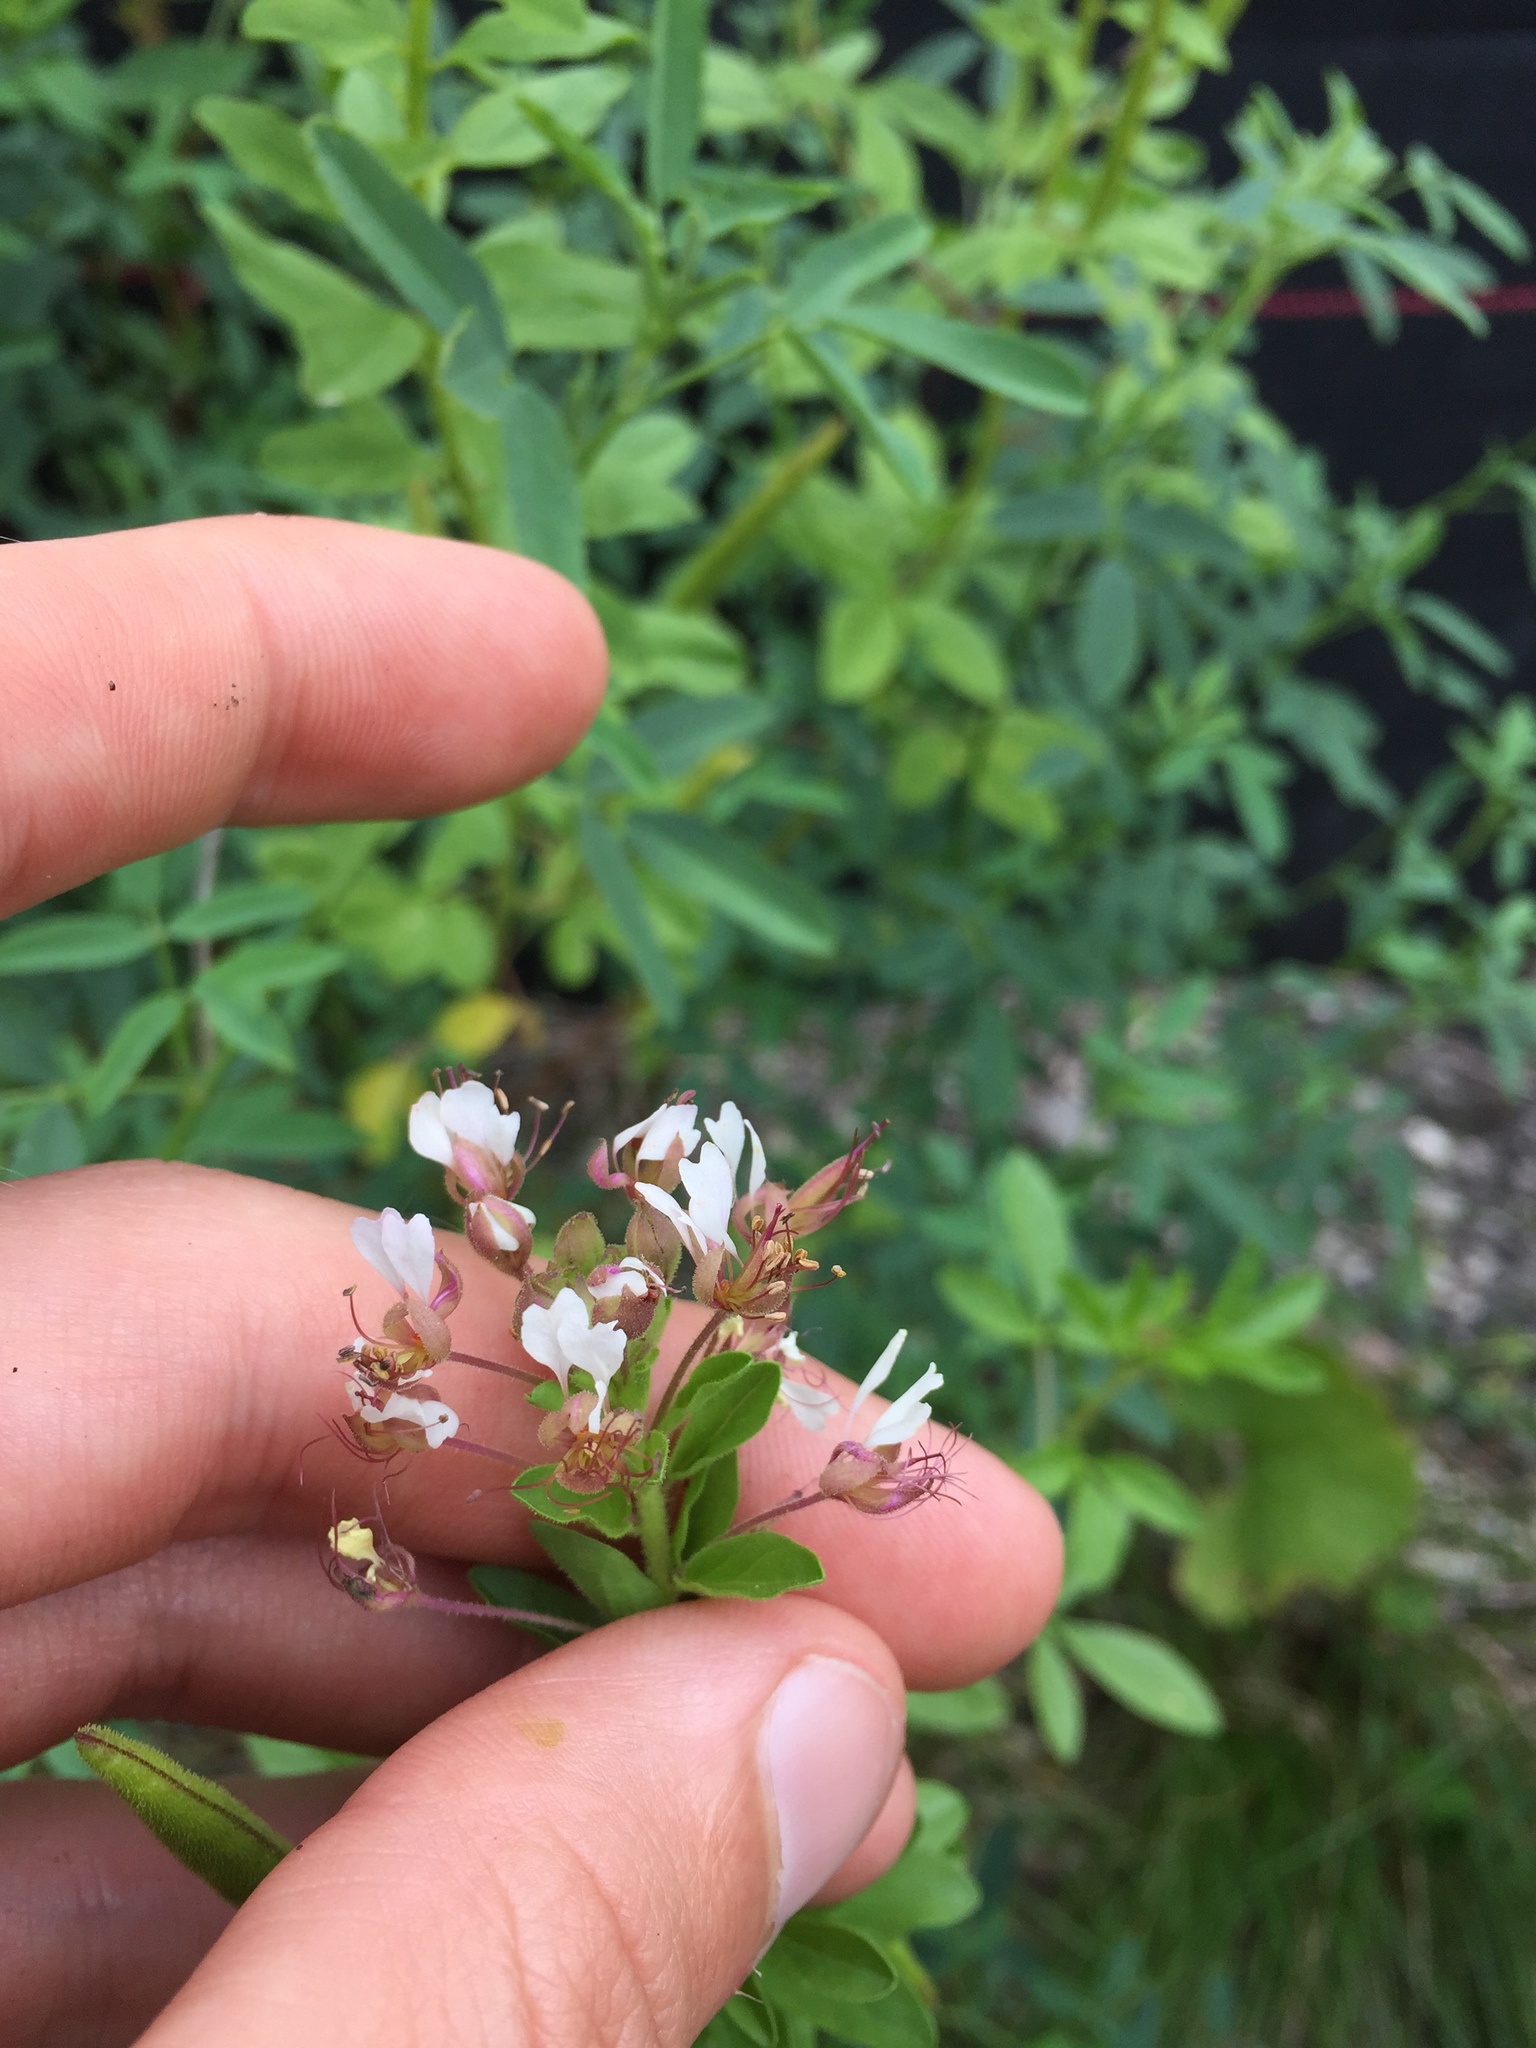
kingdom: Plantae
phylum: Tracheophyta
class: Magnoliopsida
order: Brassicales
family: Cleomaceae
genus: Polanisia
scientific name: Polanisia dodecandra
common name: Clammyweed
